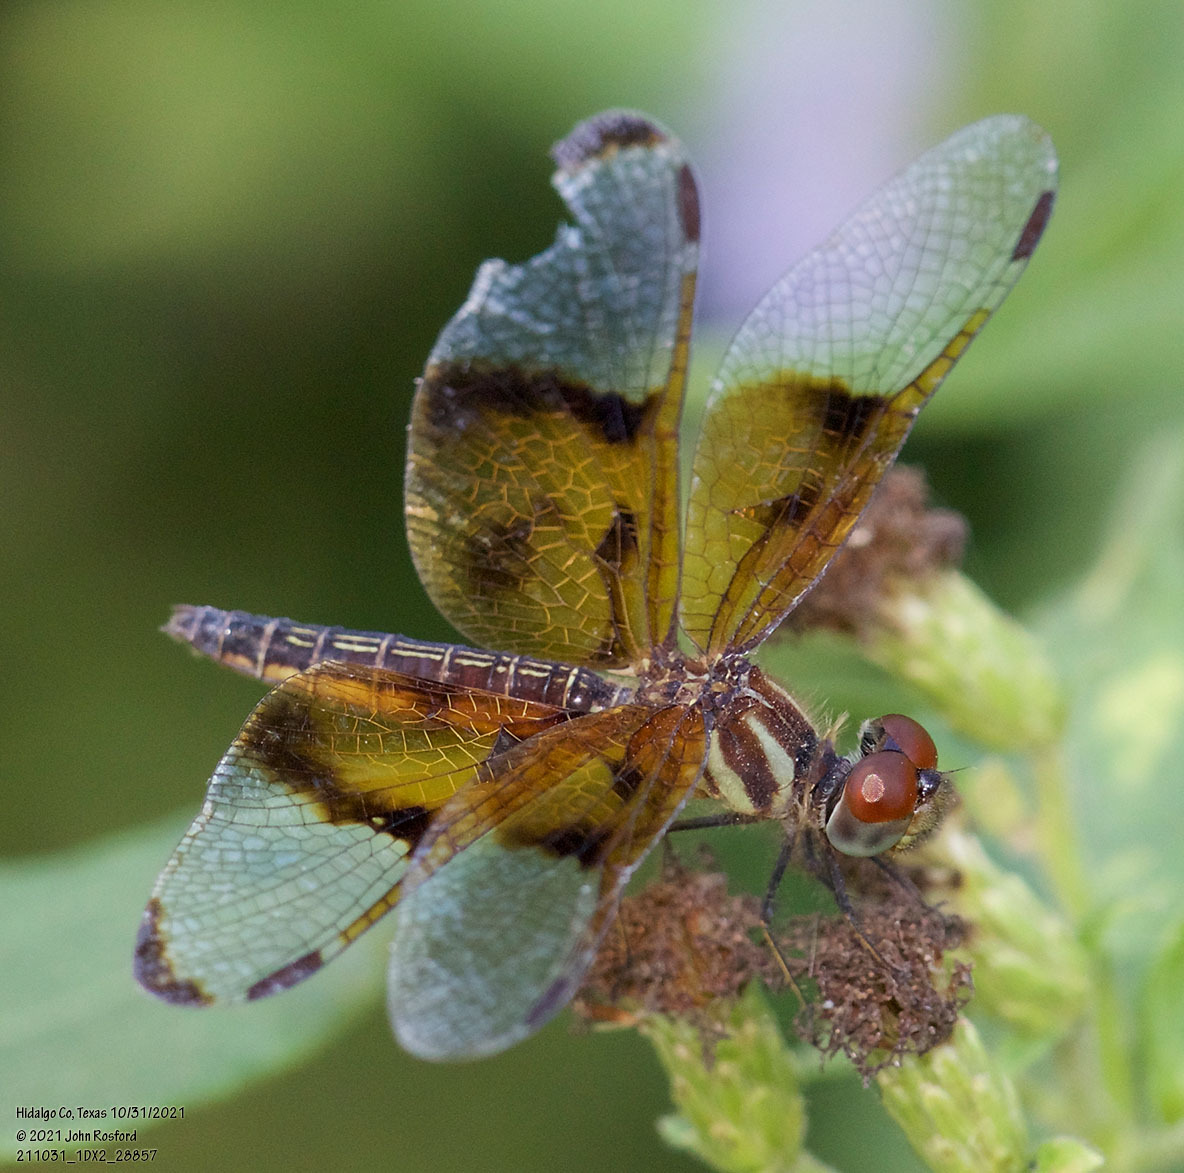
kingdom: Animalia
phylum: Arthropoda
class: Insecta
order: Odonata
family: Libellulidae
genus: Perithemis
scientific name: Perithemis domitia
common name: Slough amberwing
